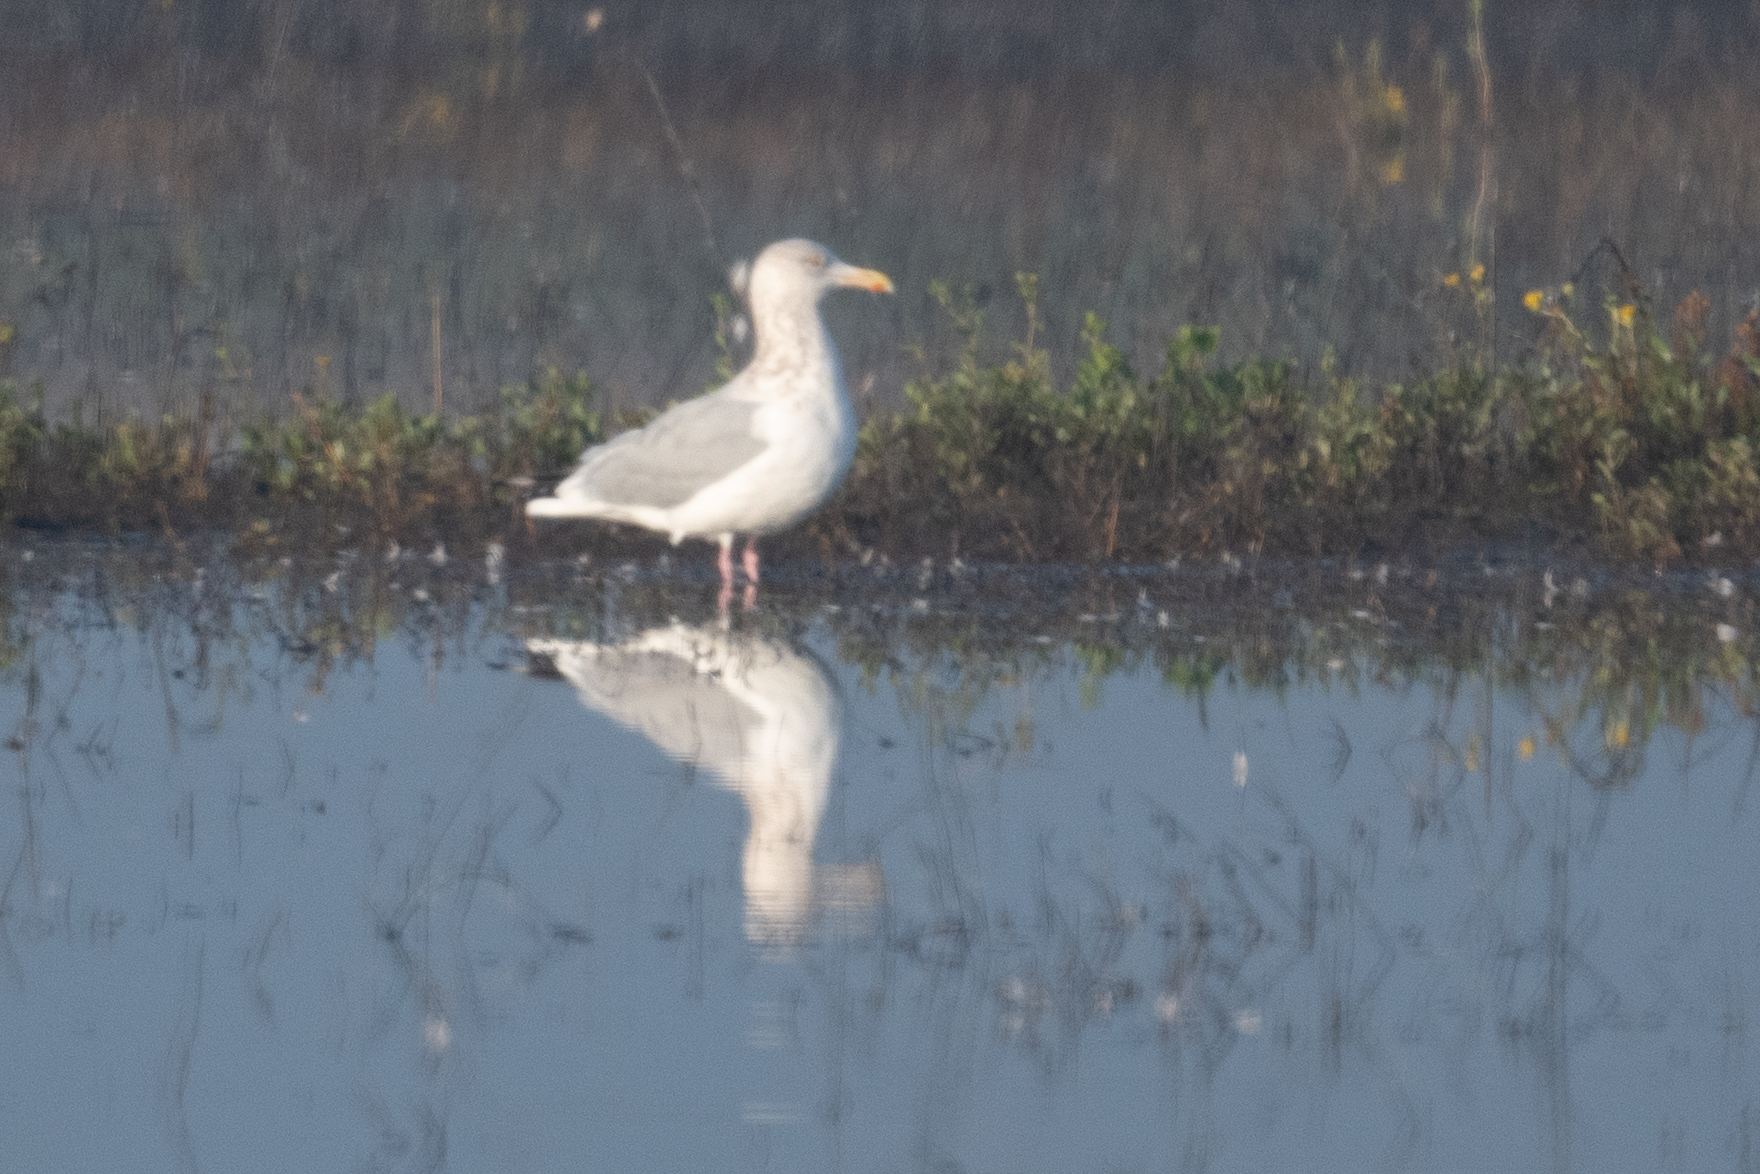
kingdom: Animalia
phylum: Chordata
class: Aves
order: Charadriiformes
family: Laridae
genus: Larus
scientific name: Larus argentatus
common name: Herring gull
